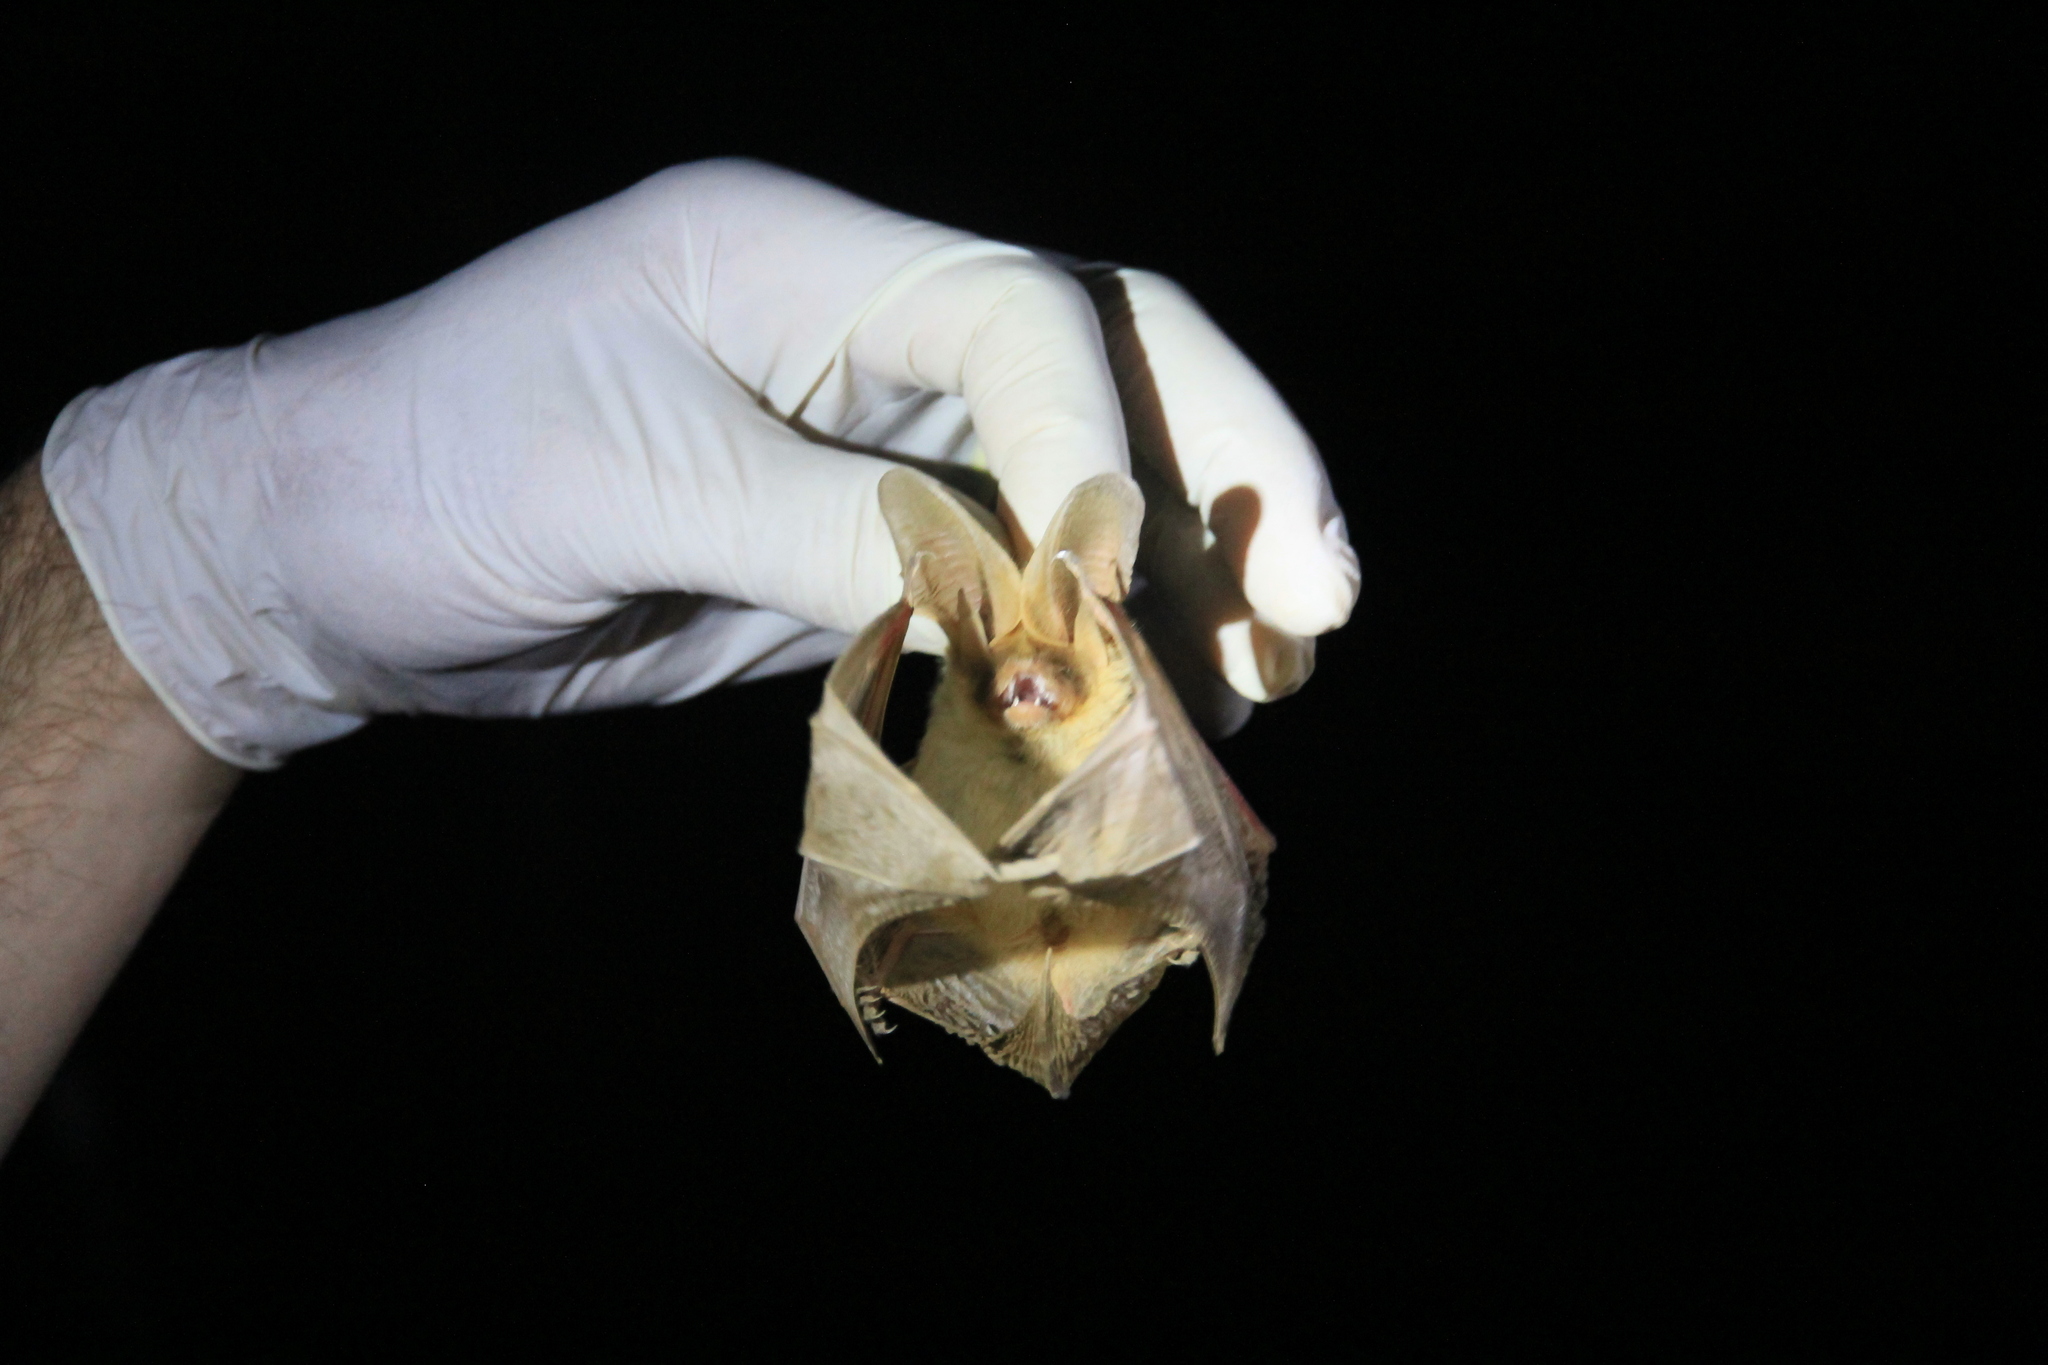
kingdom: Animalia
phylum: Chordata
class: Mammalia
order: Chiroptera
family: Vespertilionidae
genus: Histiotus
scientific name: Histiotus laephotis
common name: Thomas's big-eared brown bat
